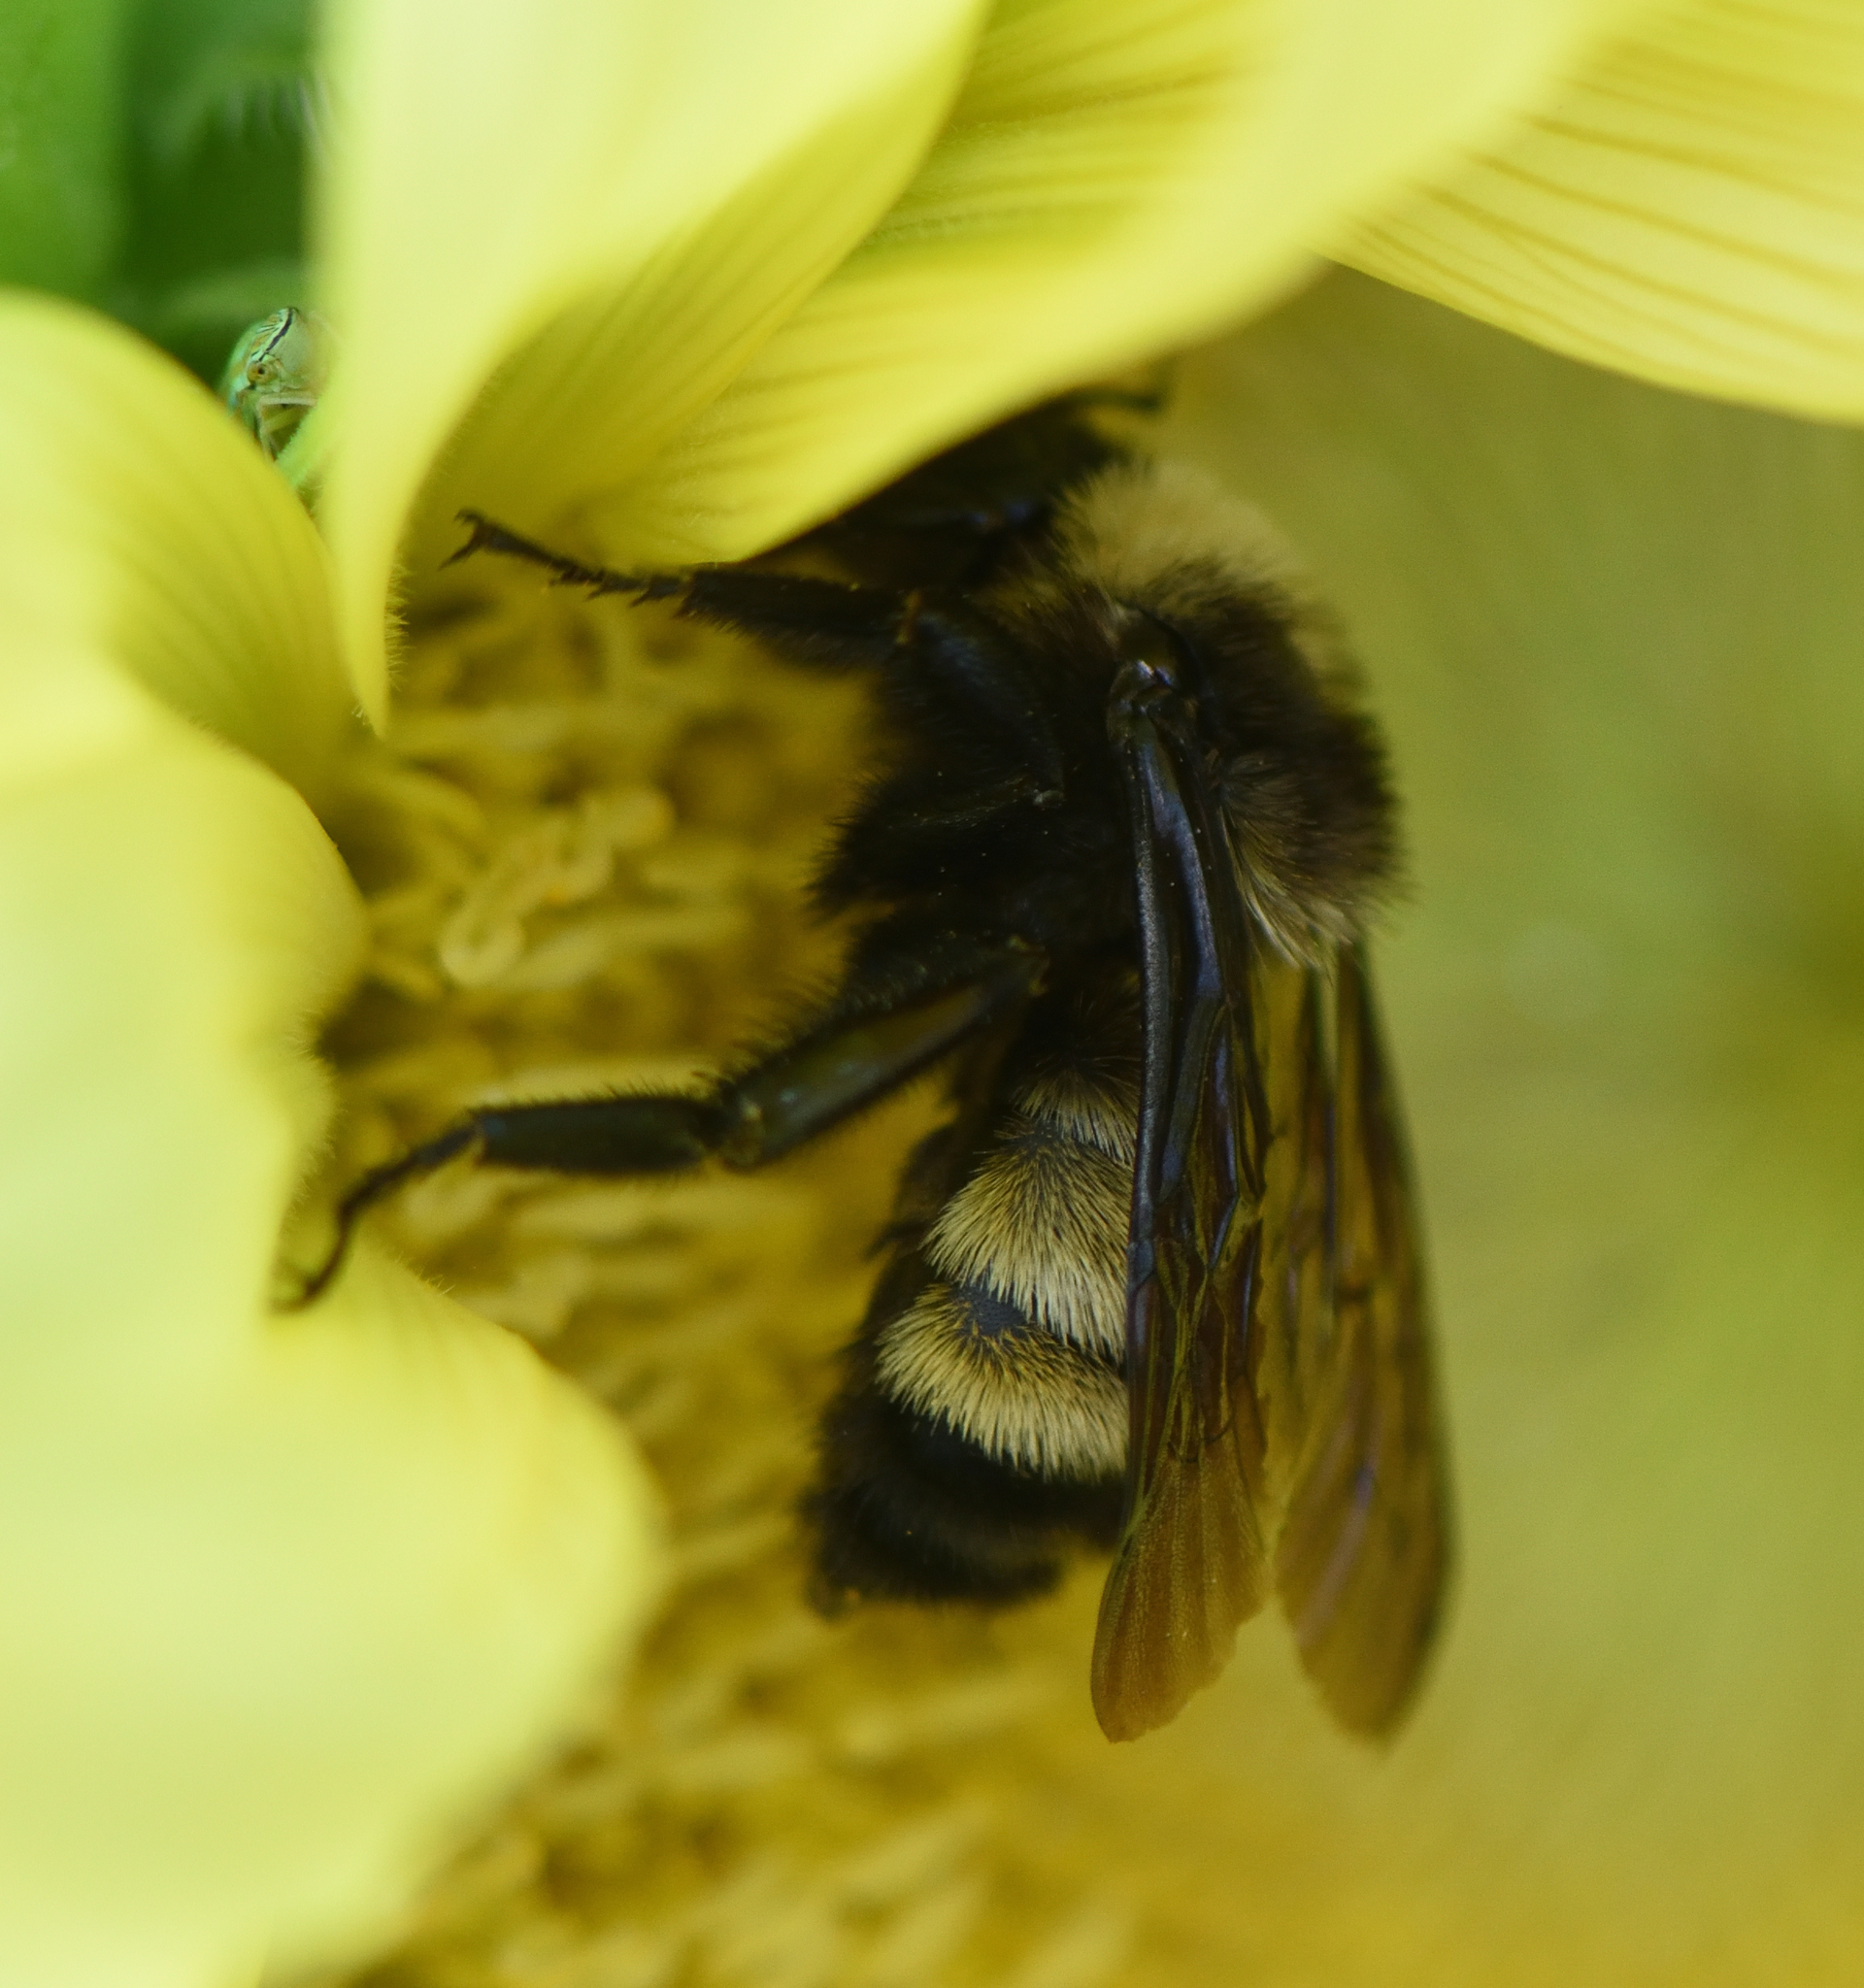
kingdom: Animalia
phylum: Arthropoda
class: Insecta
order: Hymenoptera
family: Apidae
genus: Bombus
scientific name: Bombus pensylvanicus
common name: Bumble bee
